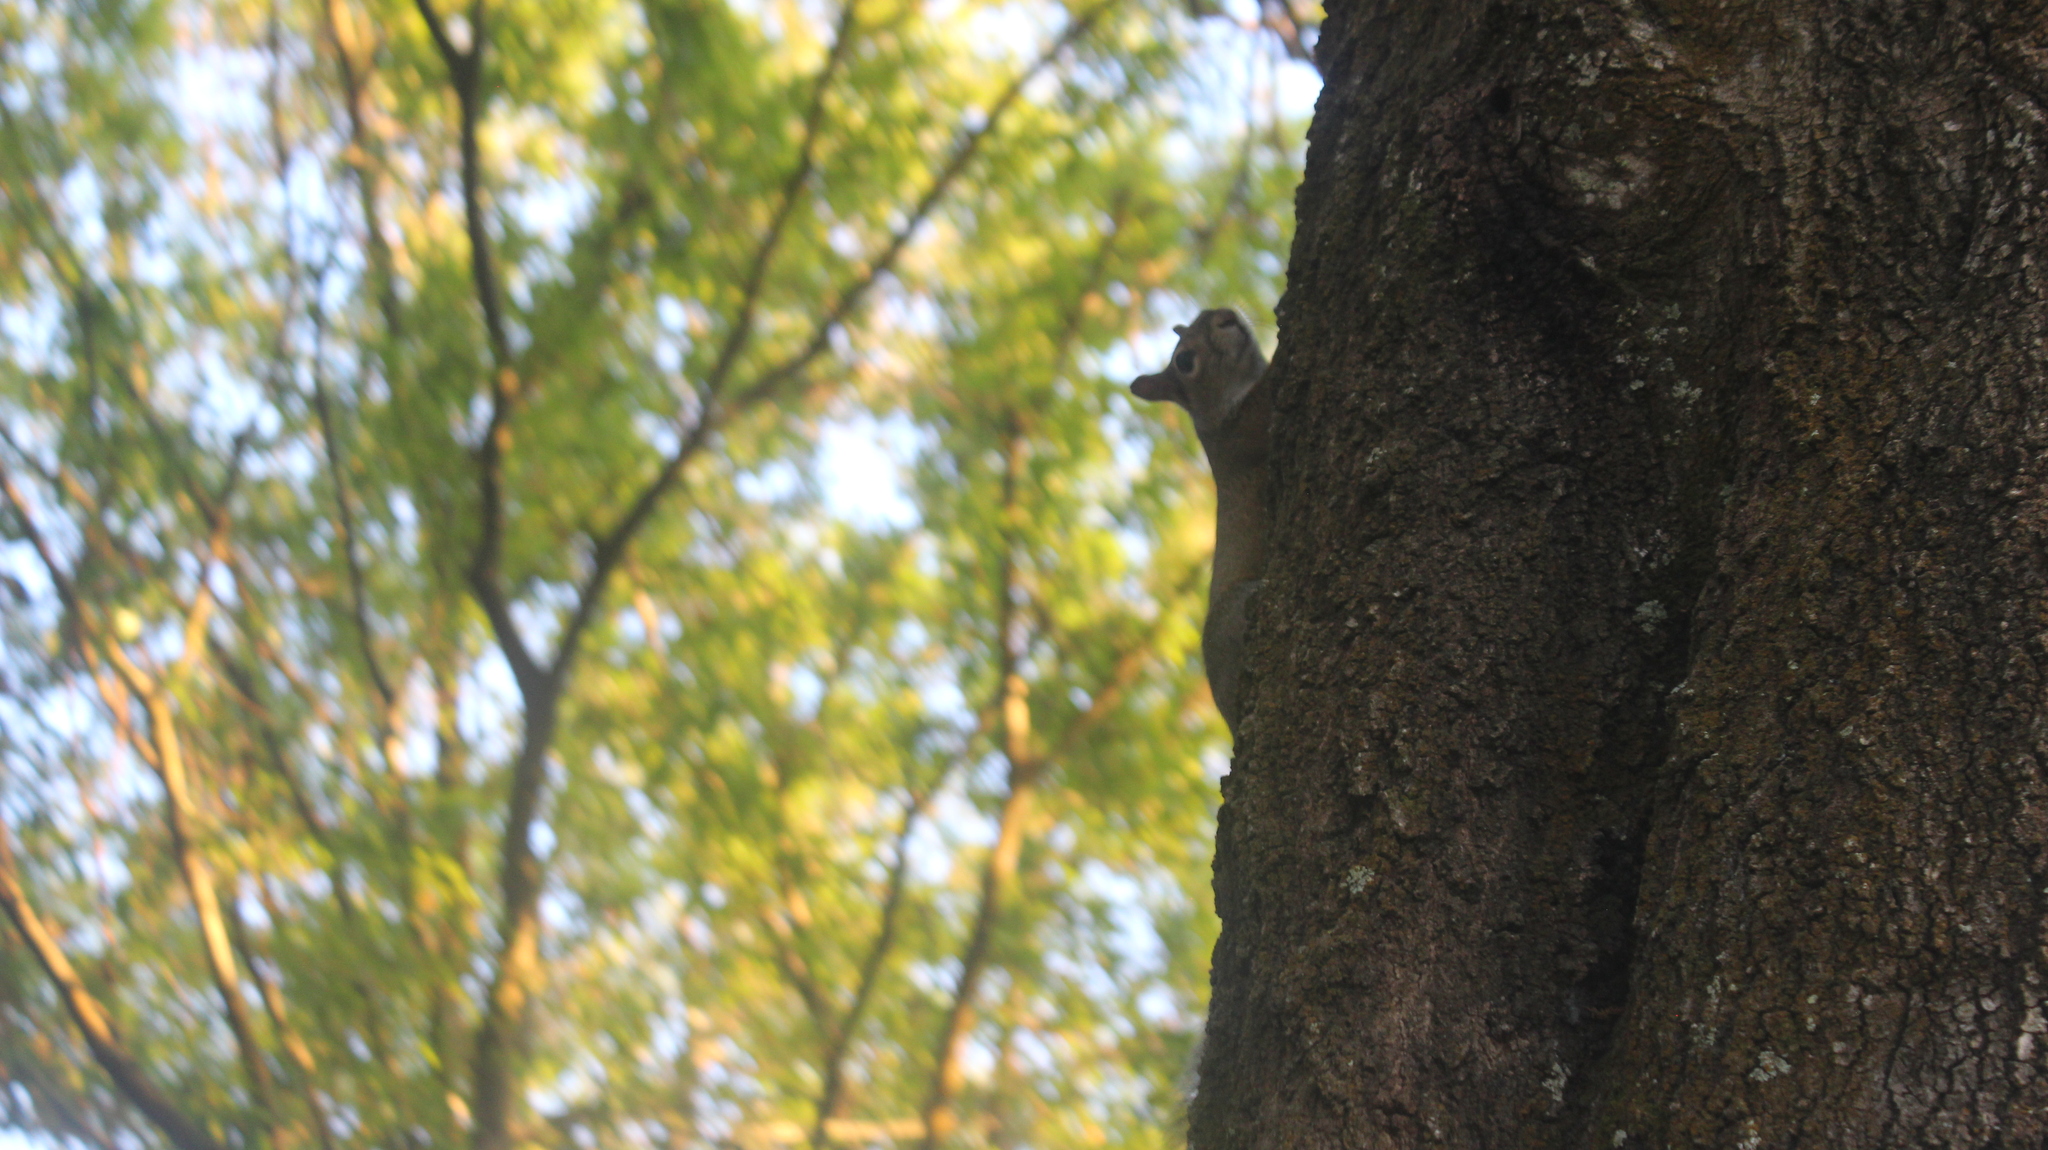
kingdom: Animalia
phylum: Chordata
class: Mammalia
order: Rodentia
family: Sciuridae
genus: Sciurus
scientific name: Sciurus carolinensis
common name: Eastern gray squirrel
